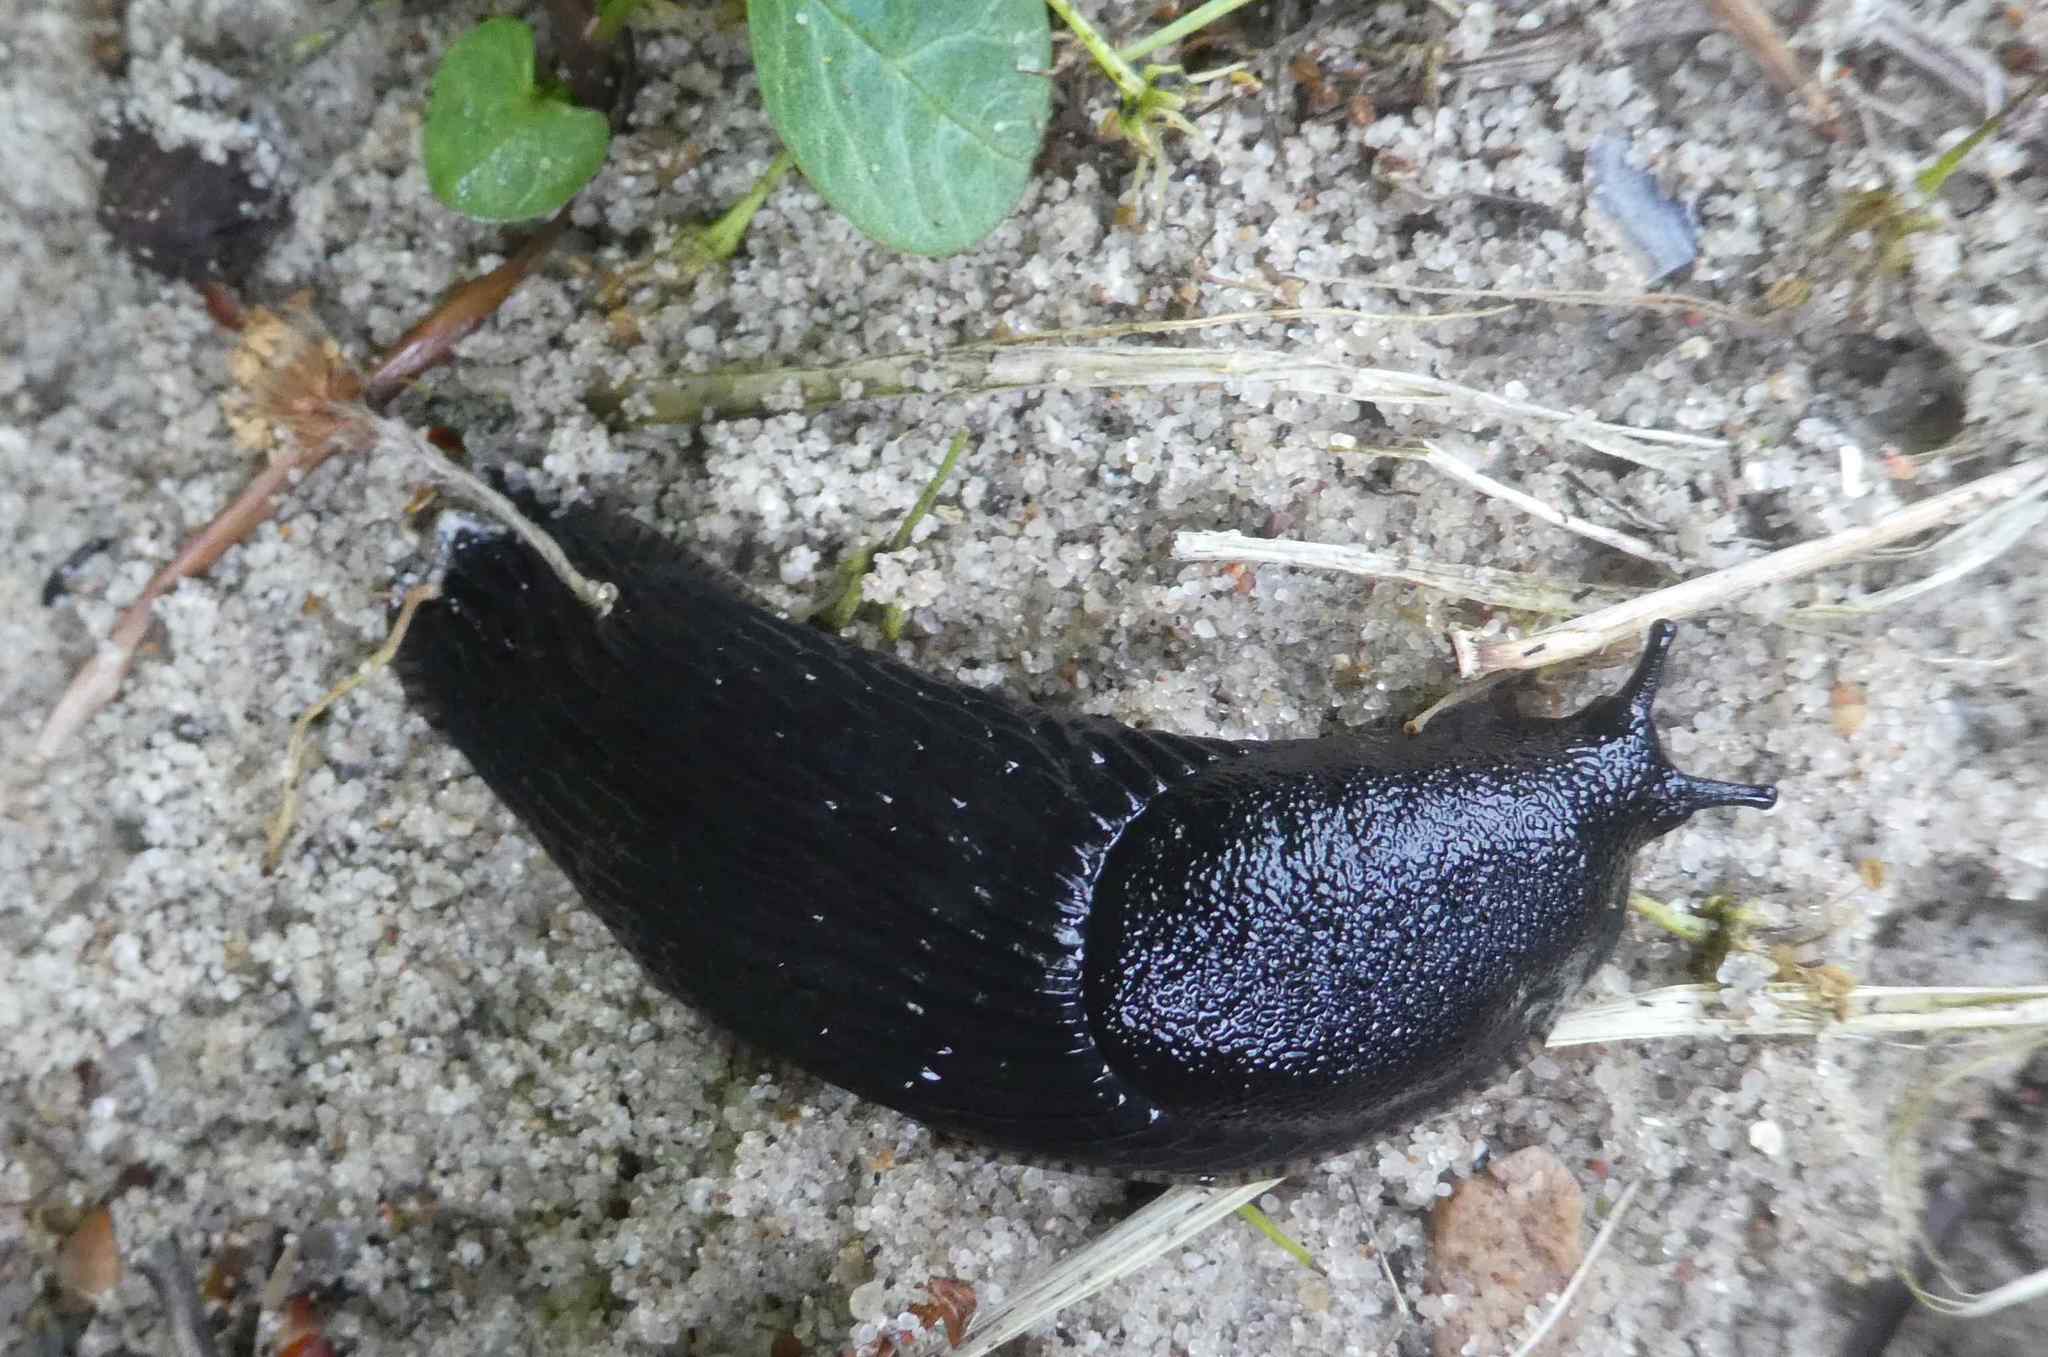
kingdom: Animalia
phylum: Mollusca
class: Gastropoda
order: Stylommatophora
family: Arionidae
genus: Arion
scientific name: Arion ater
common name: Black arion
